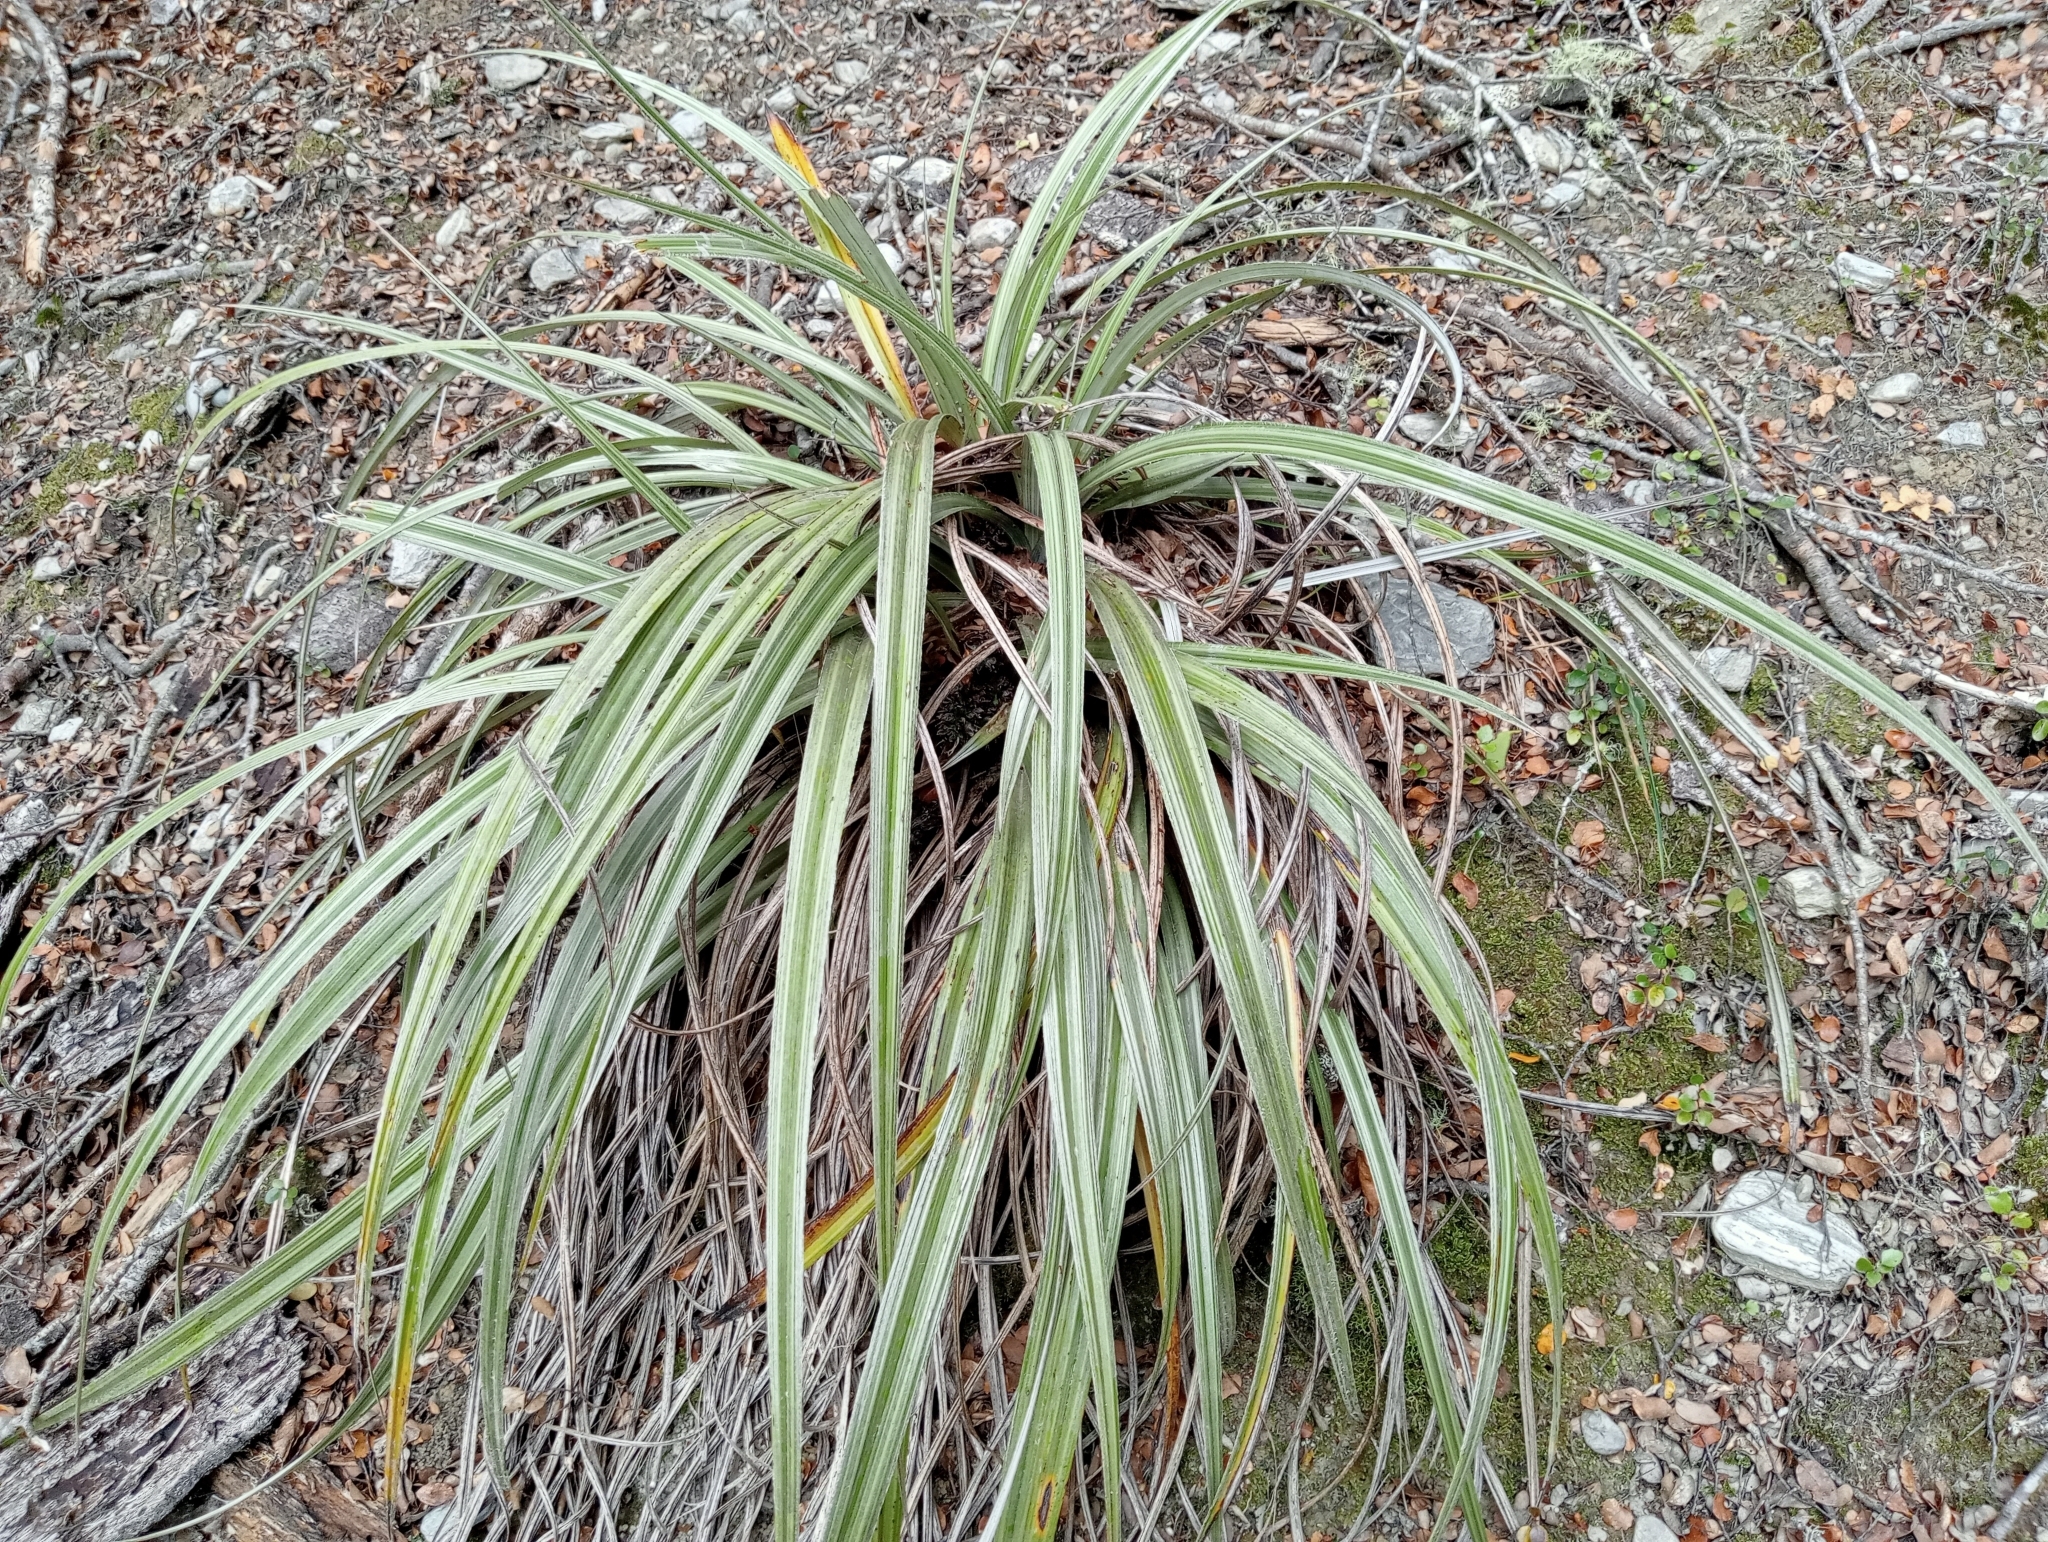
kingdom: Plantae
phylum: Tracheophyta
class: Liliopsida
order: Asparagales
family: Asteliaceae
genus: Astelia
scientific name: Astelia nervosa
